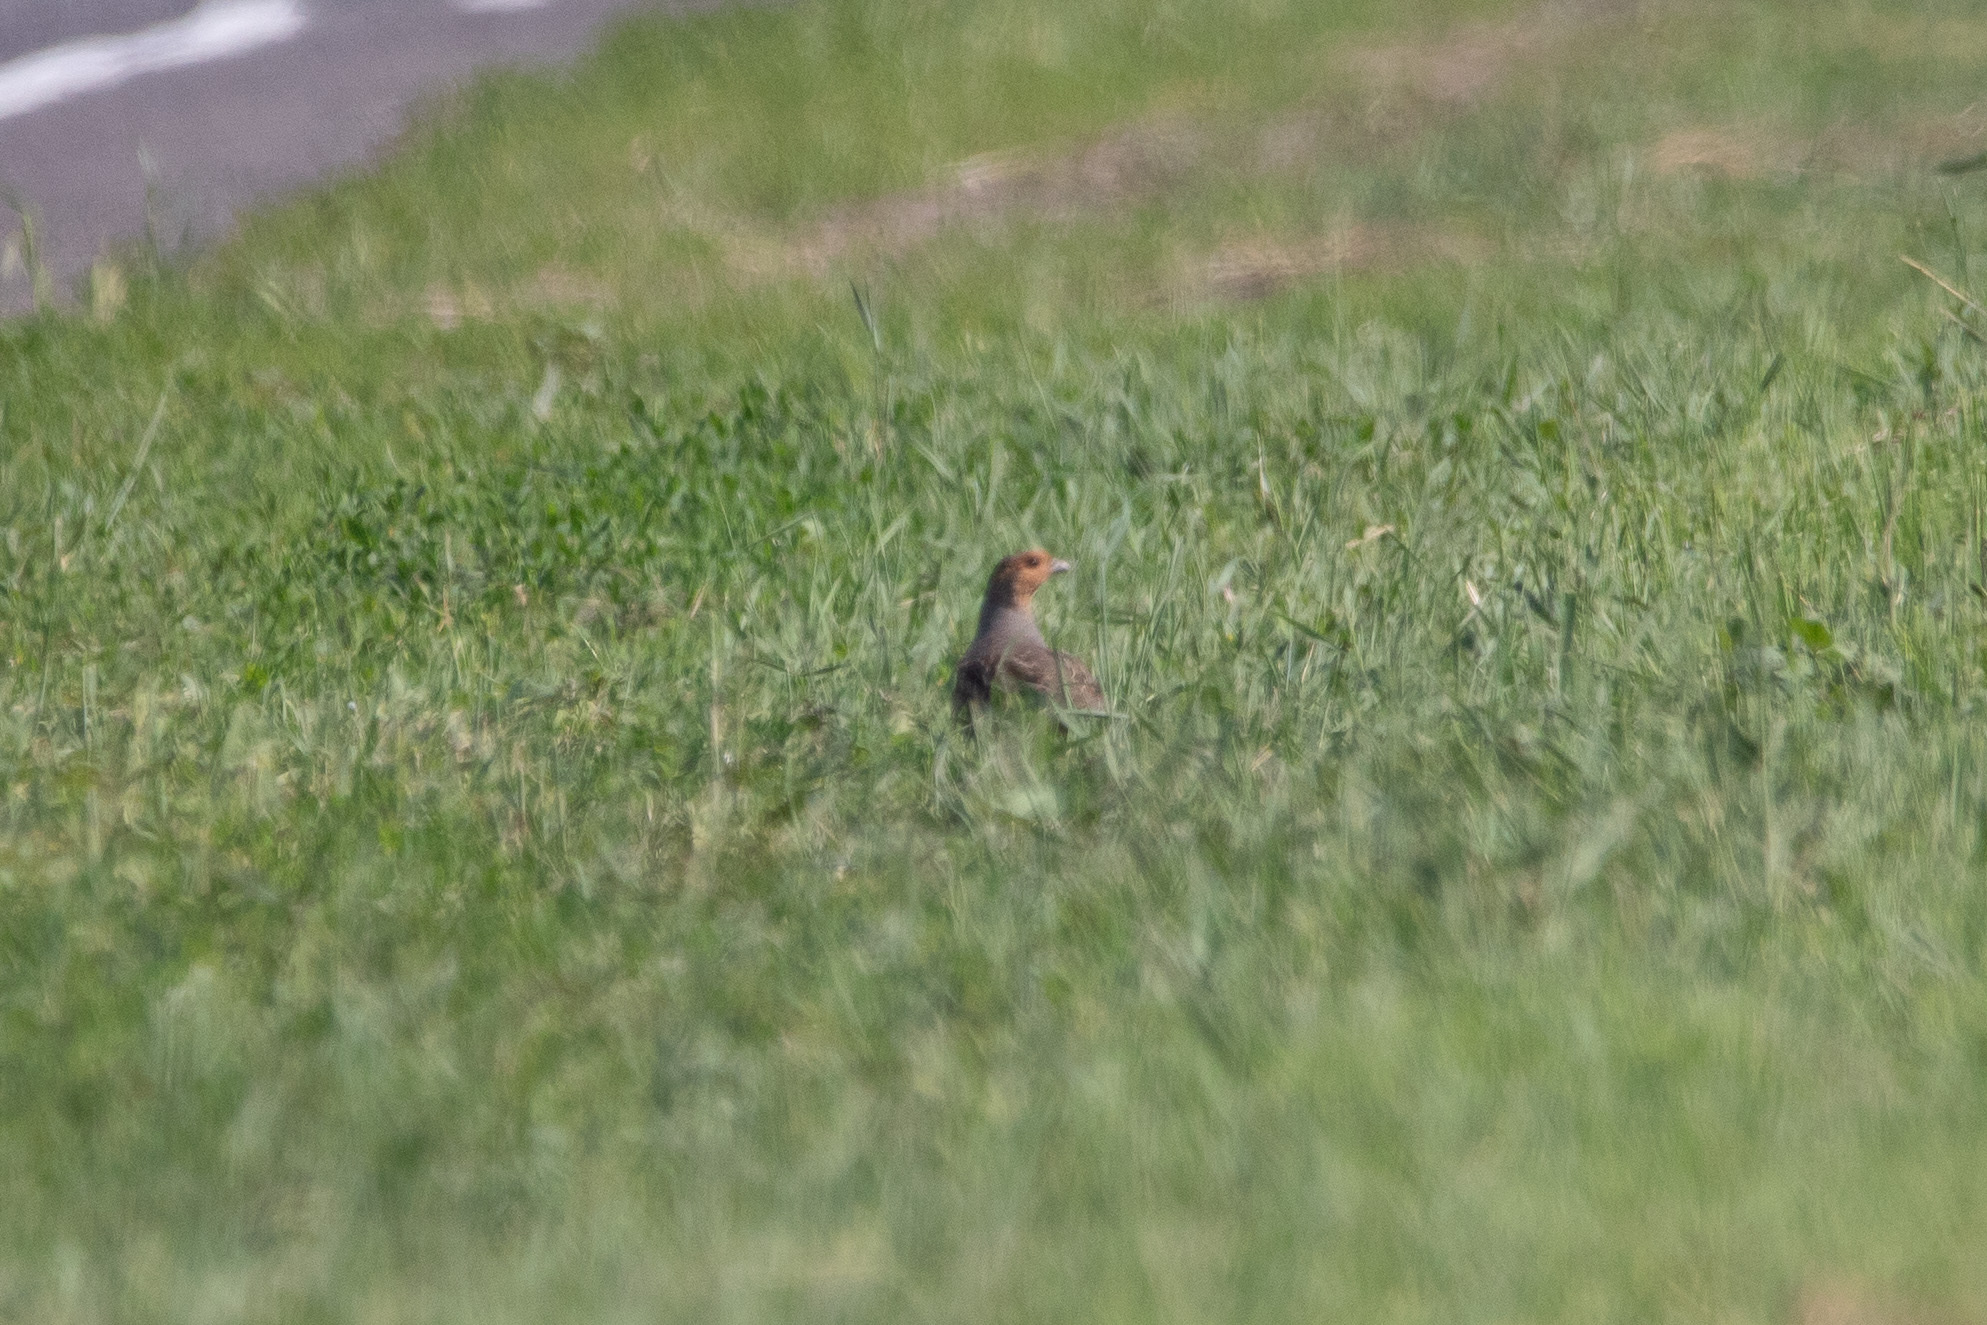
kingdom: Animalia
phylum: Chordata
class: Aves
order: Galliformes
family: Phasianidae
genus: Perdix
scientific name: Perdix perdix
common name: Grey partridge
